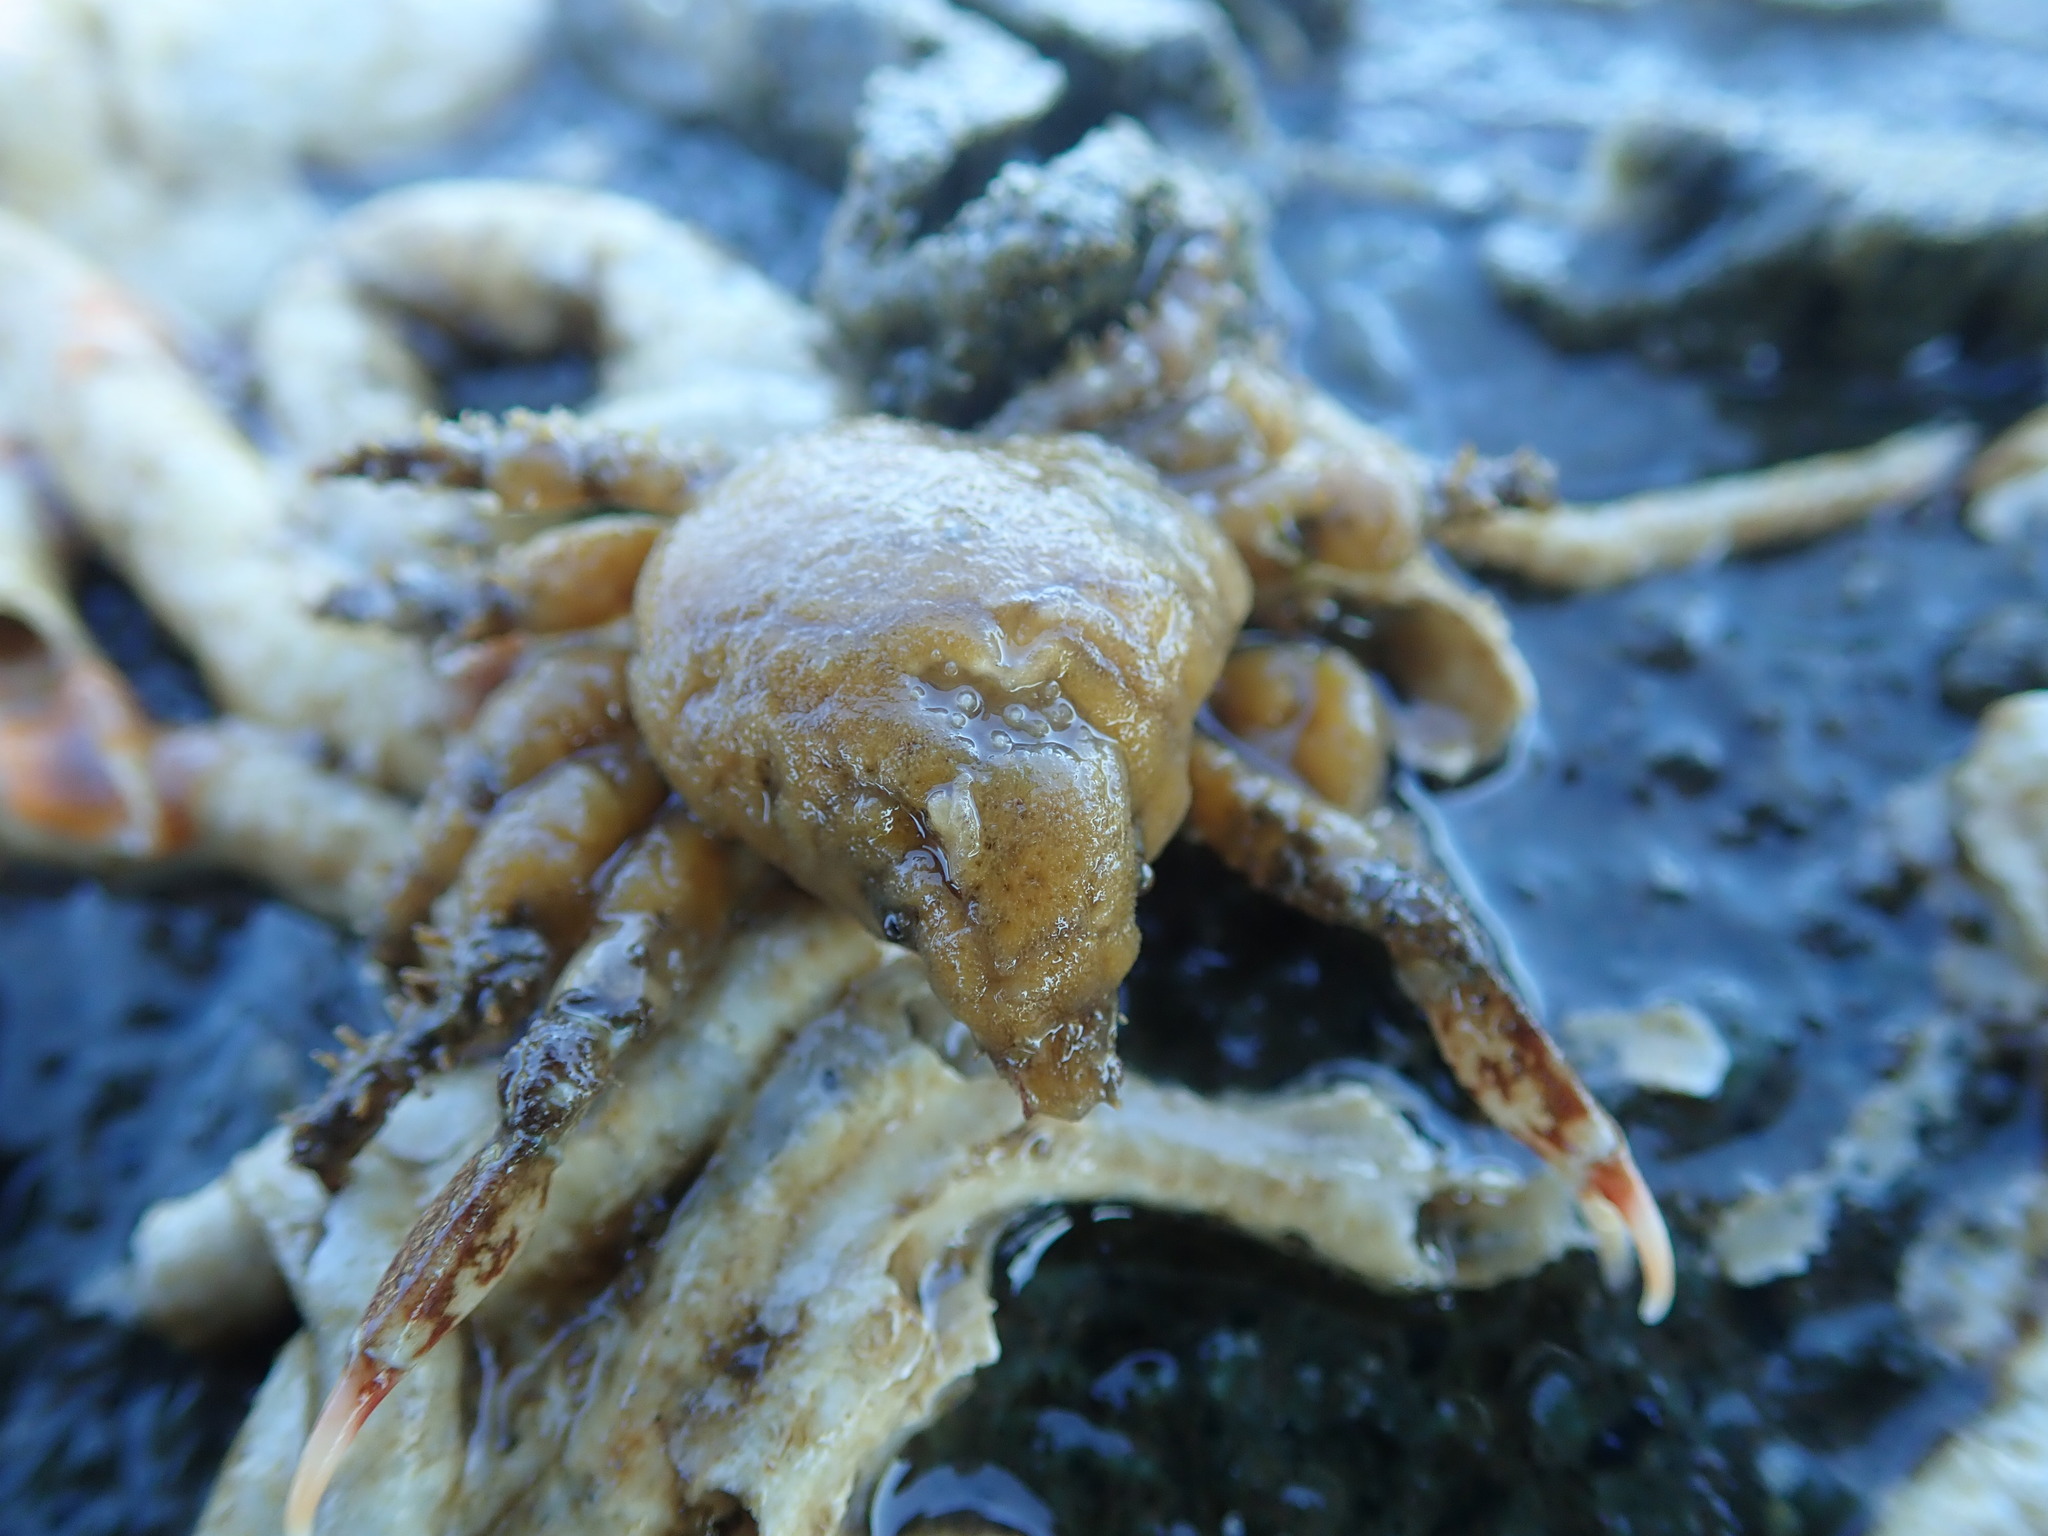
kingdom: Animalia
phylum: Arthropoda
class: Malacostraca
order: Decapoda
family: Epialtidae
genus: Scyra
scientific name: Scyra acutifrons
